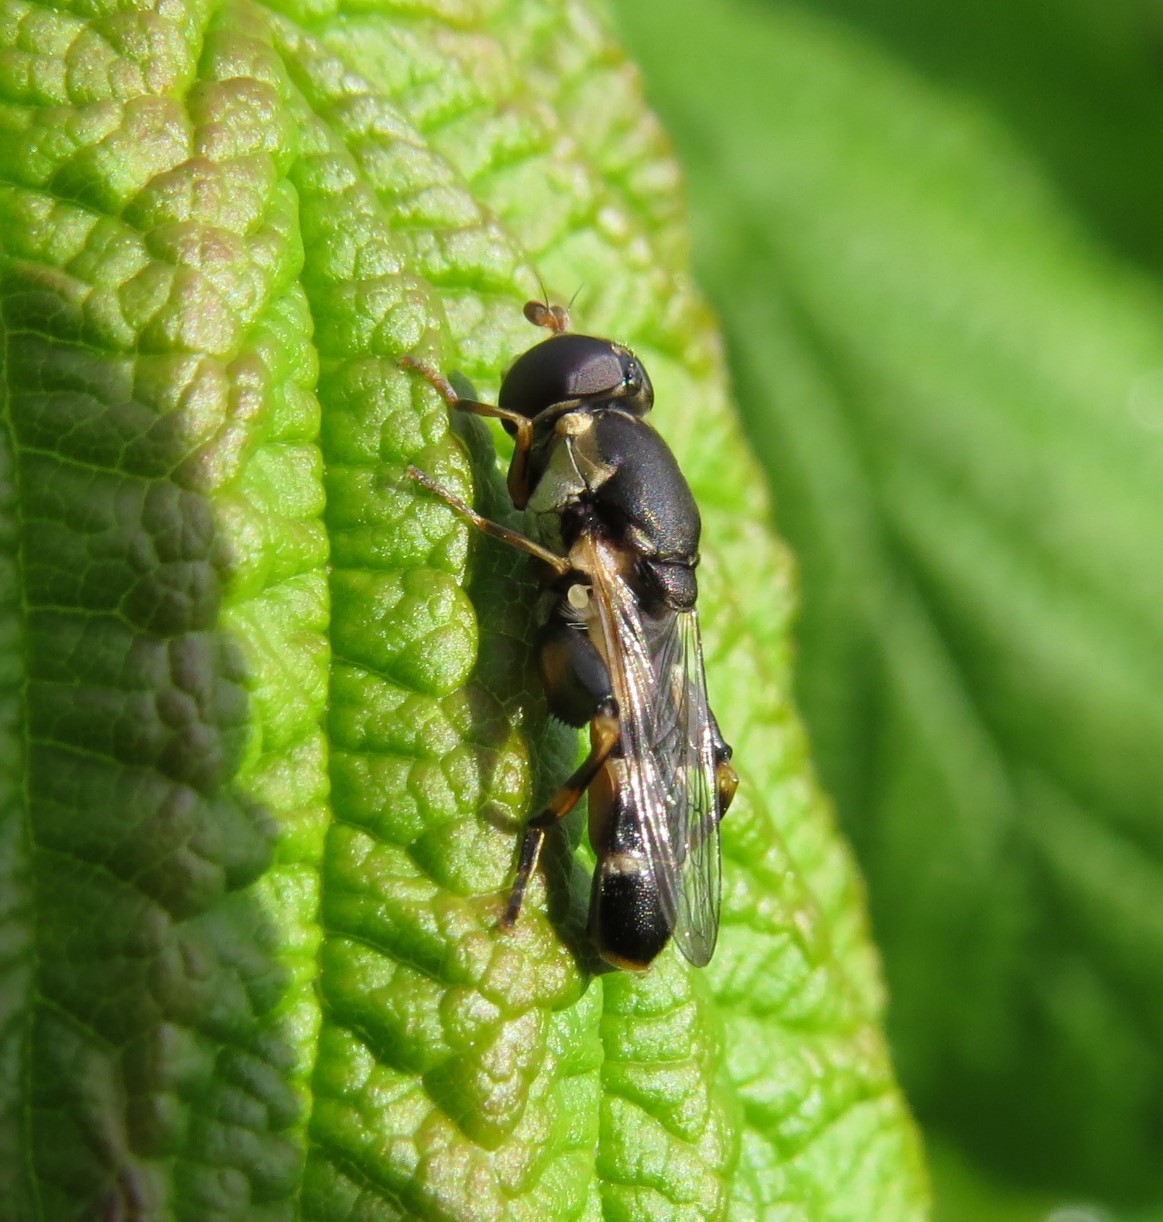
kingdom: Animalia
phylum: Arthropoda
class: Insecta
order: Diptera
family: Syrphidae
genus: Syritta
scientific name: Syritta pipiens
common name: Hover fly
